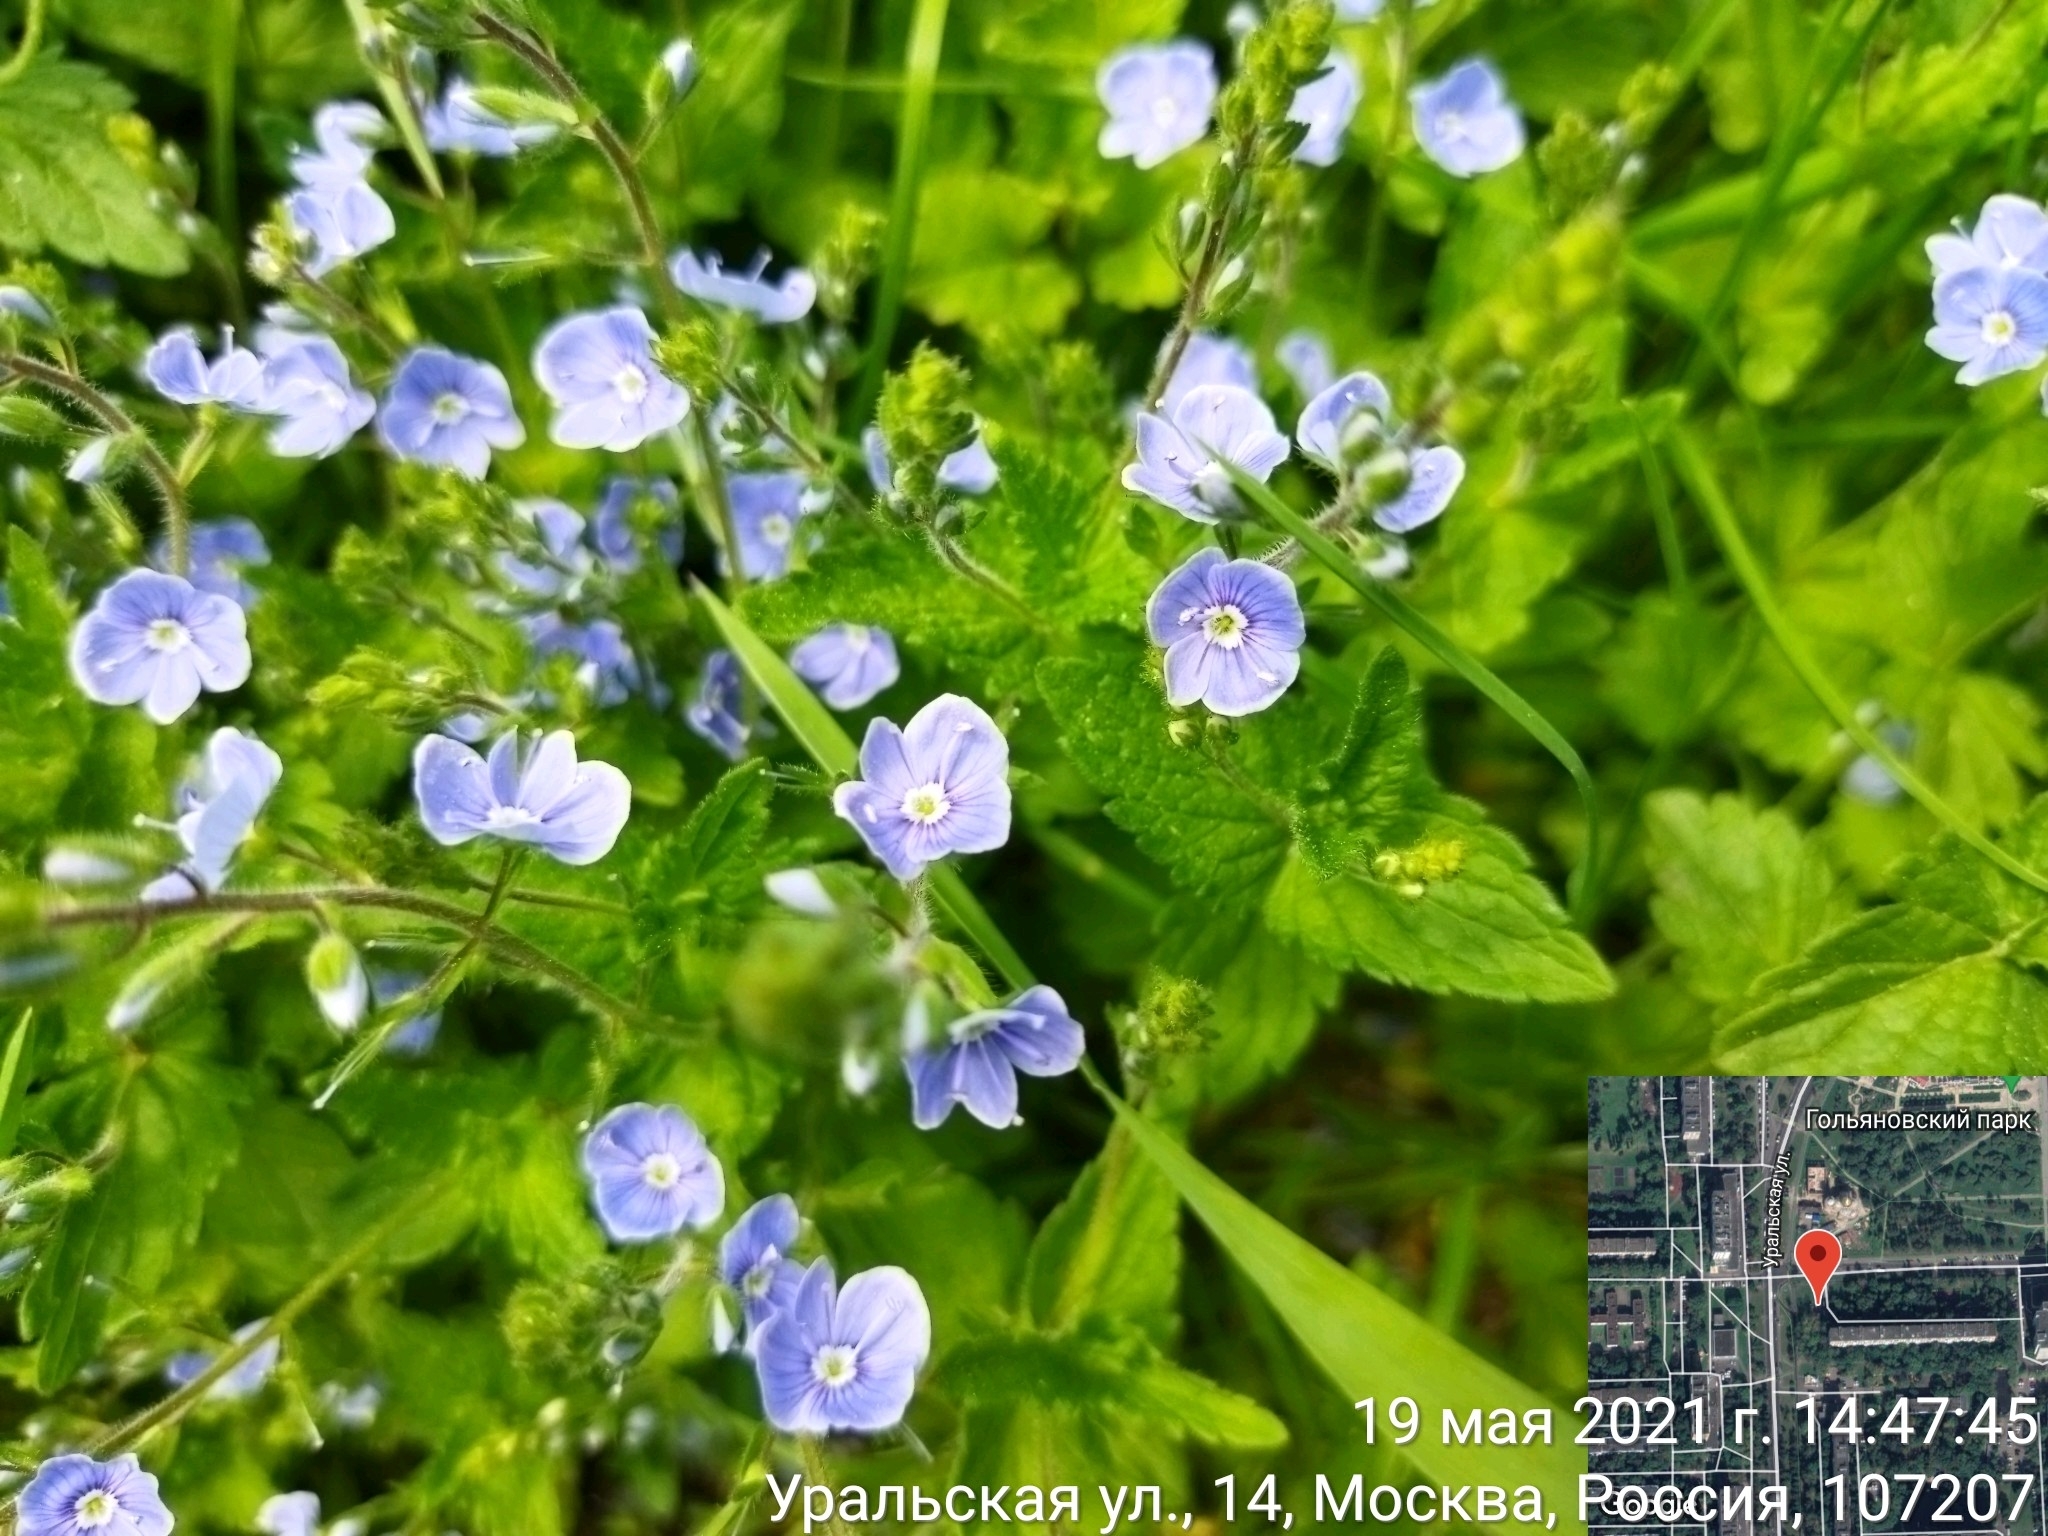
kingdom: Plantae
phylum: Tracheophyta
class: Magnoliopsida
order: Lamiales
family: Plantaginaceae
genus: Veronica
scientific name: Veronica chamaedrys
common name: Germander speedwell
